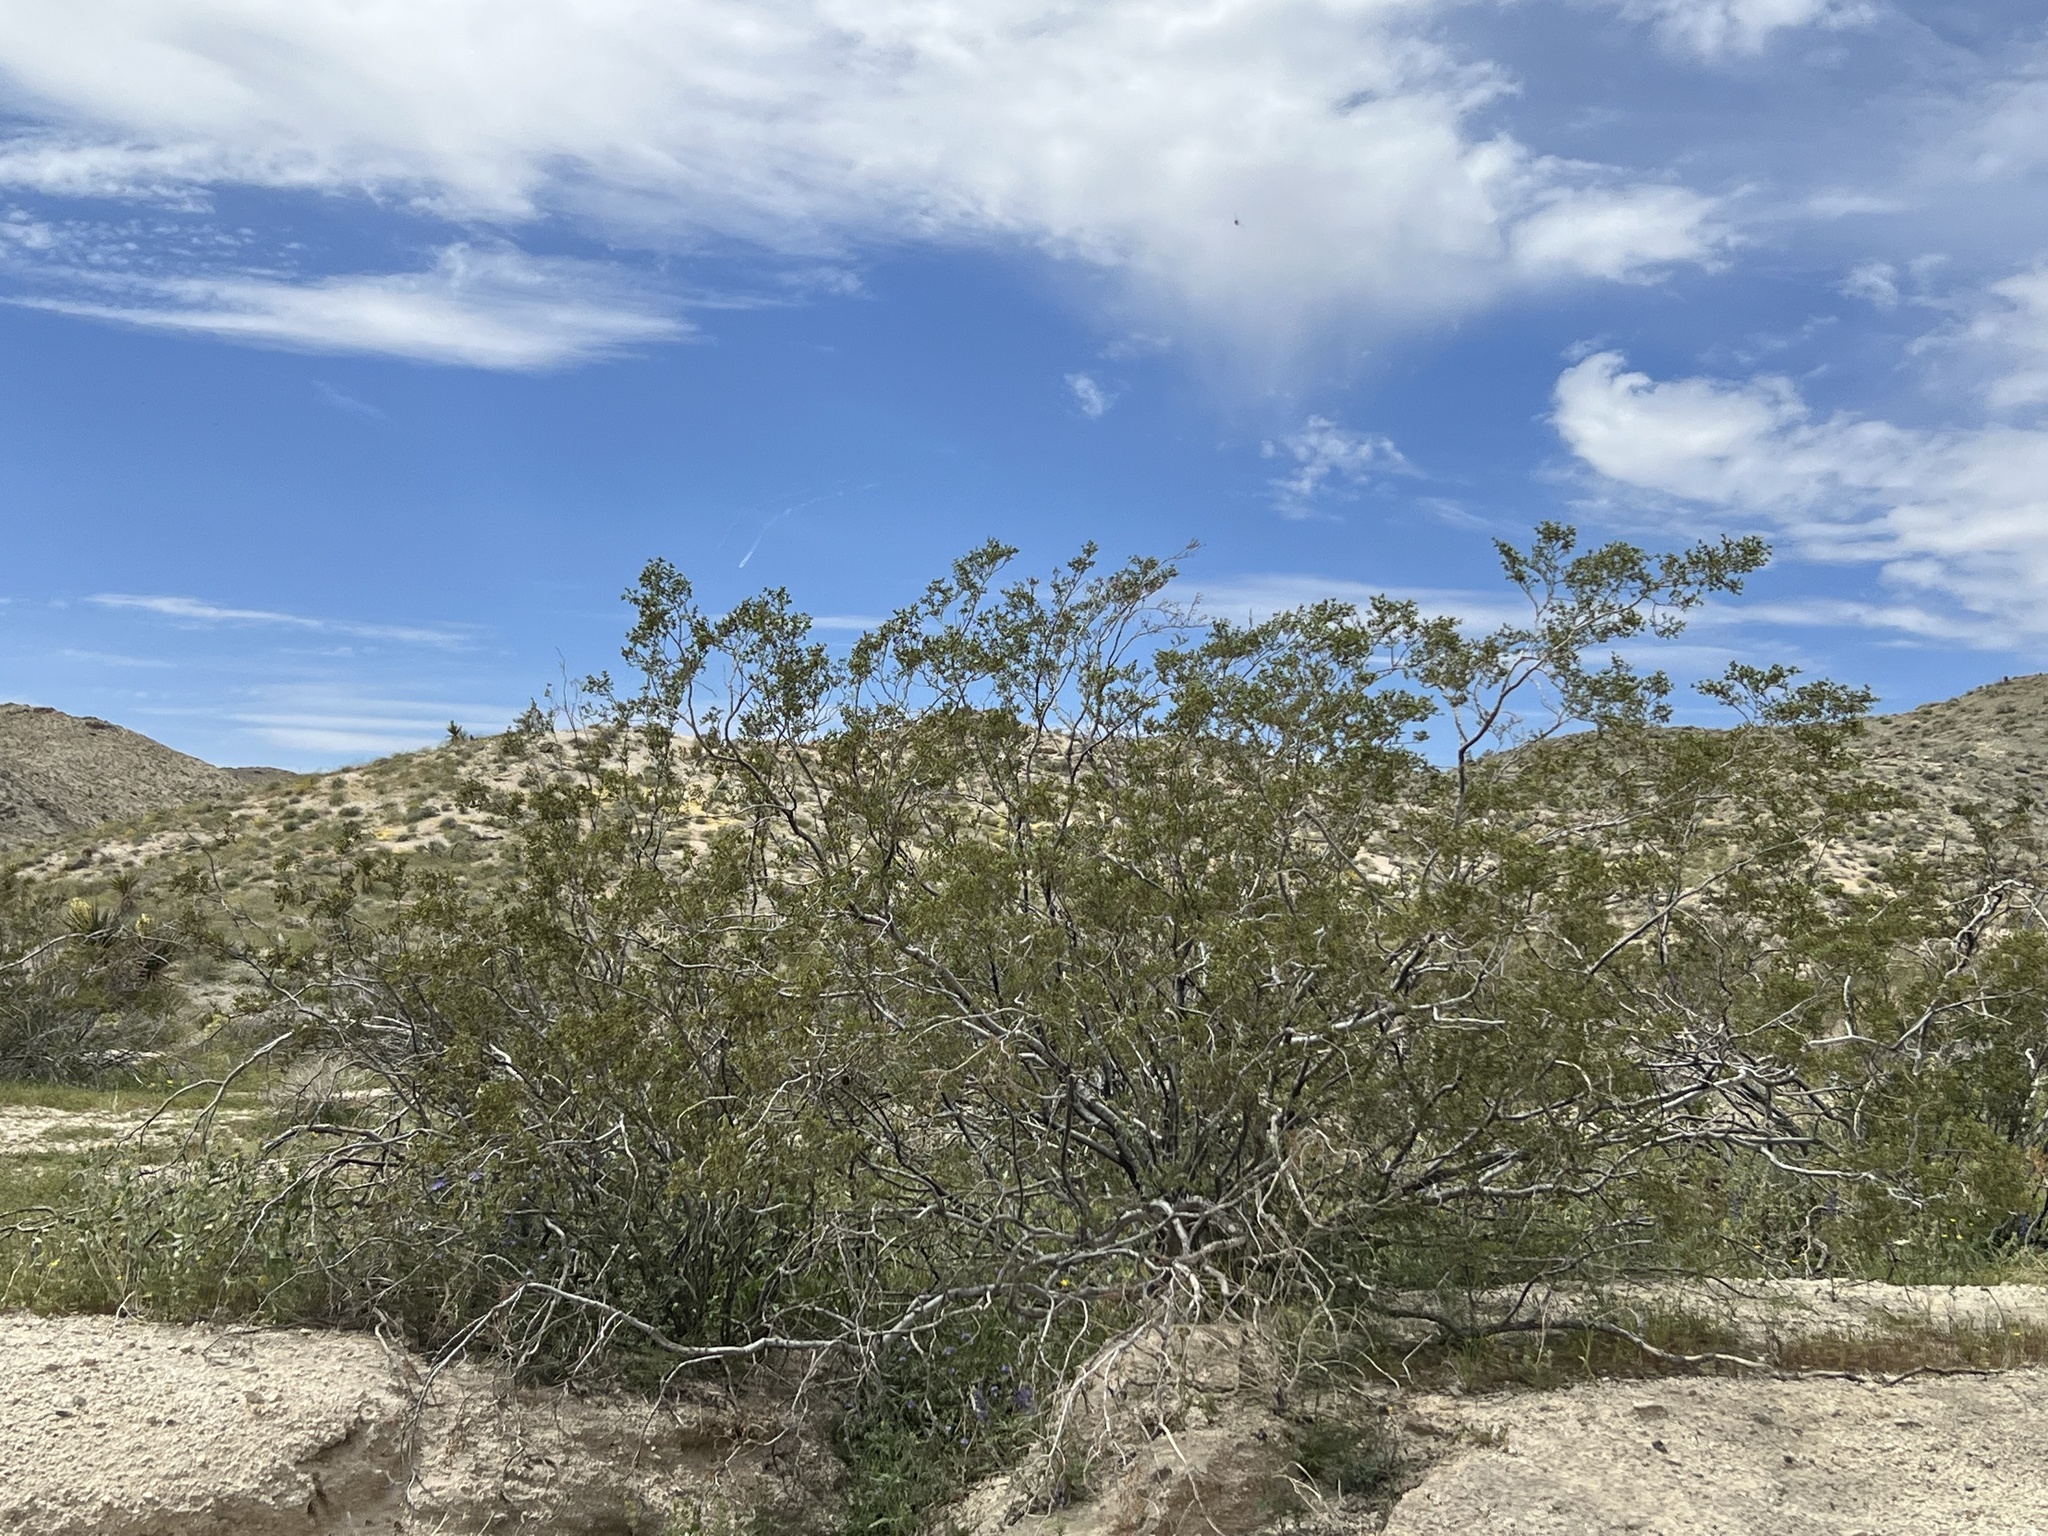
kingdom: Plantae
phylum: Tracheophyta
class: Magnoliopsida
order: Zygophyllales
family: Zygophyllaceae
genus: Larrea
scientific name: Larrea tridentata
